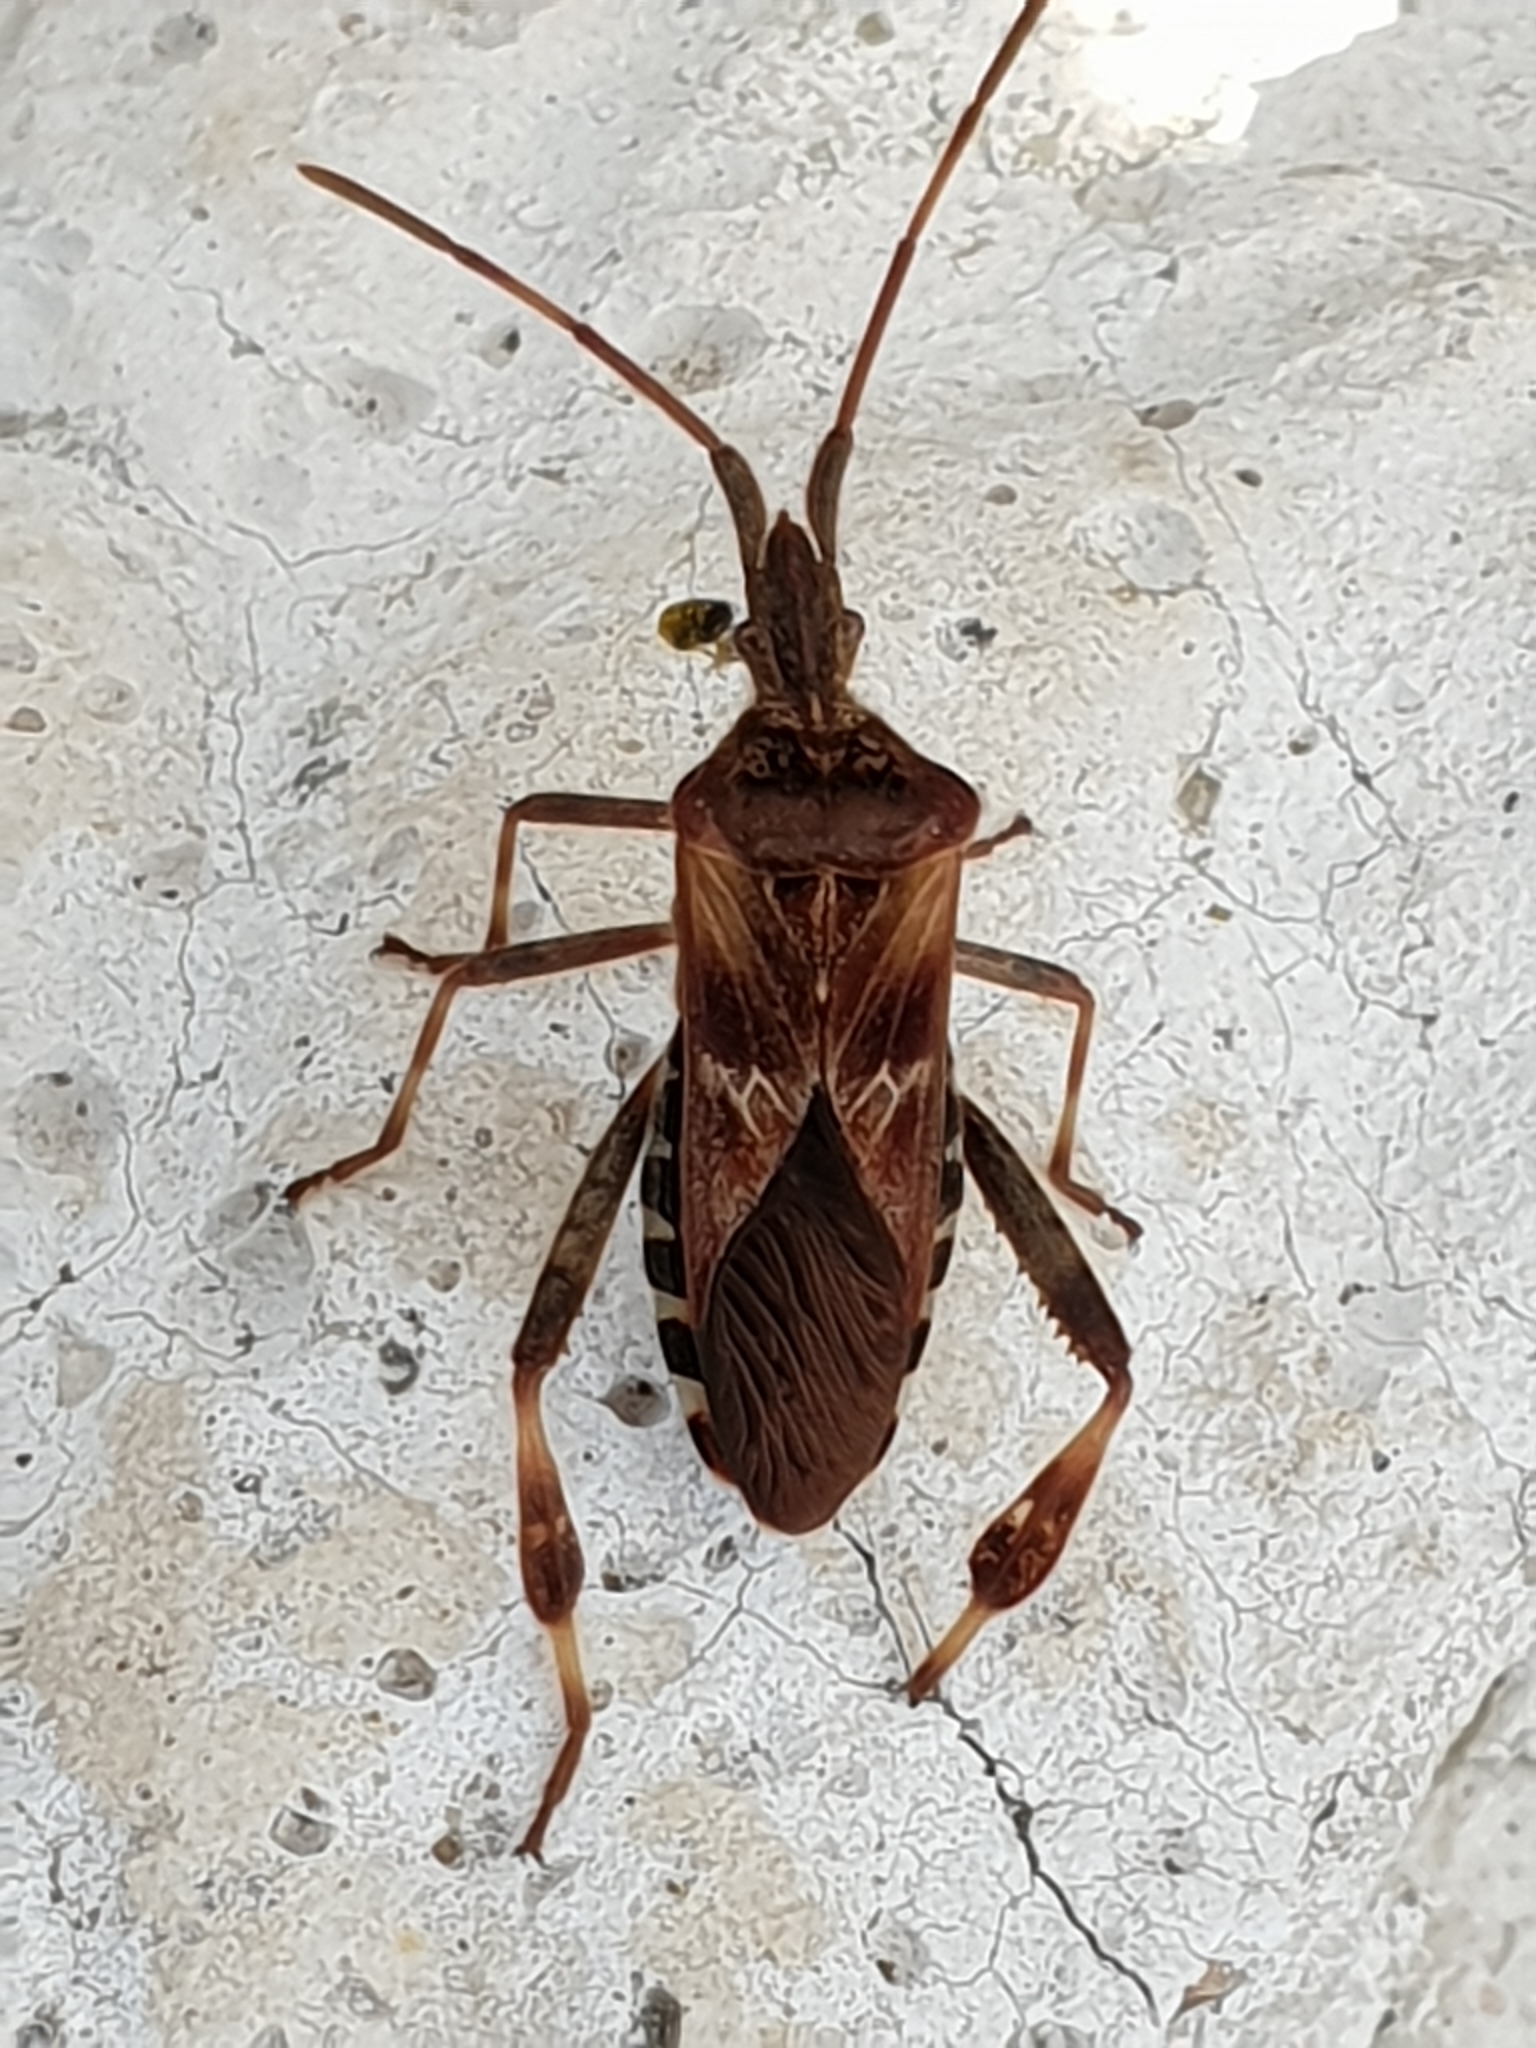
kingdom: Animalia
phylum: Arthropoda
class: Insecta
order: Hemiptera
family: Coreidae
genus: Leptoglossus
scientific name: Leptoglossus occidentalis
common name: Western conifer-seed bug
